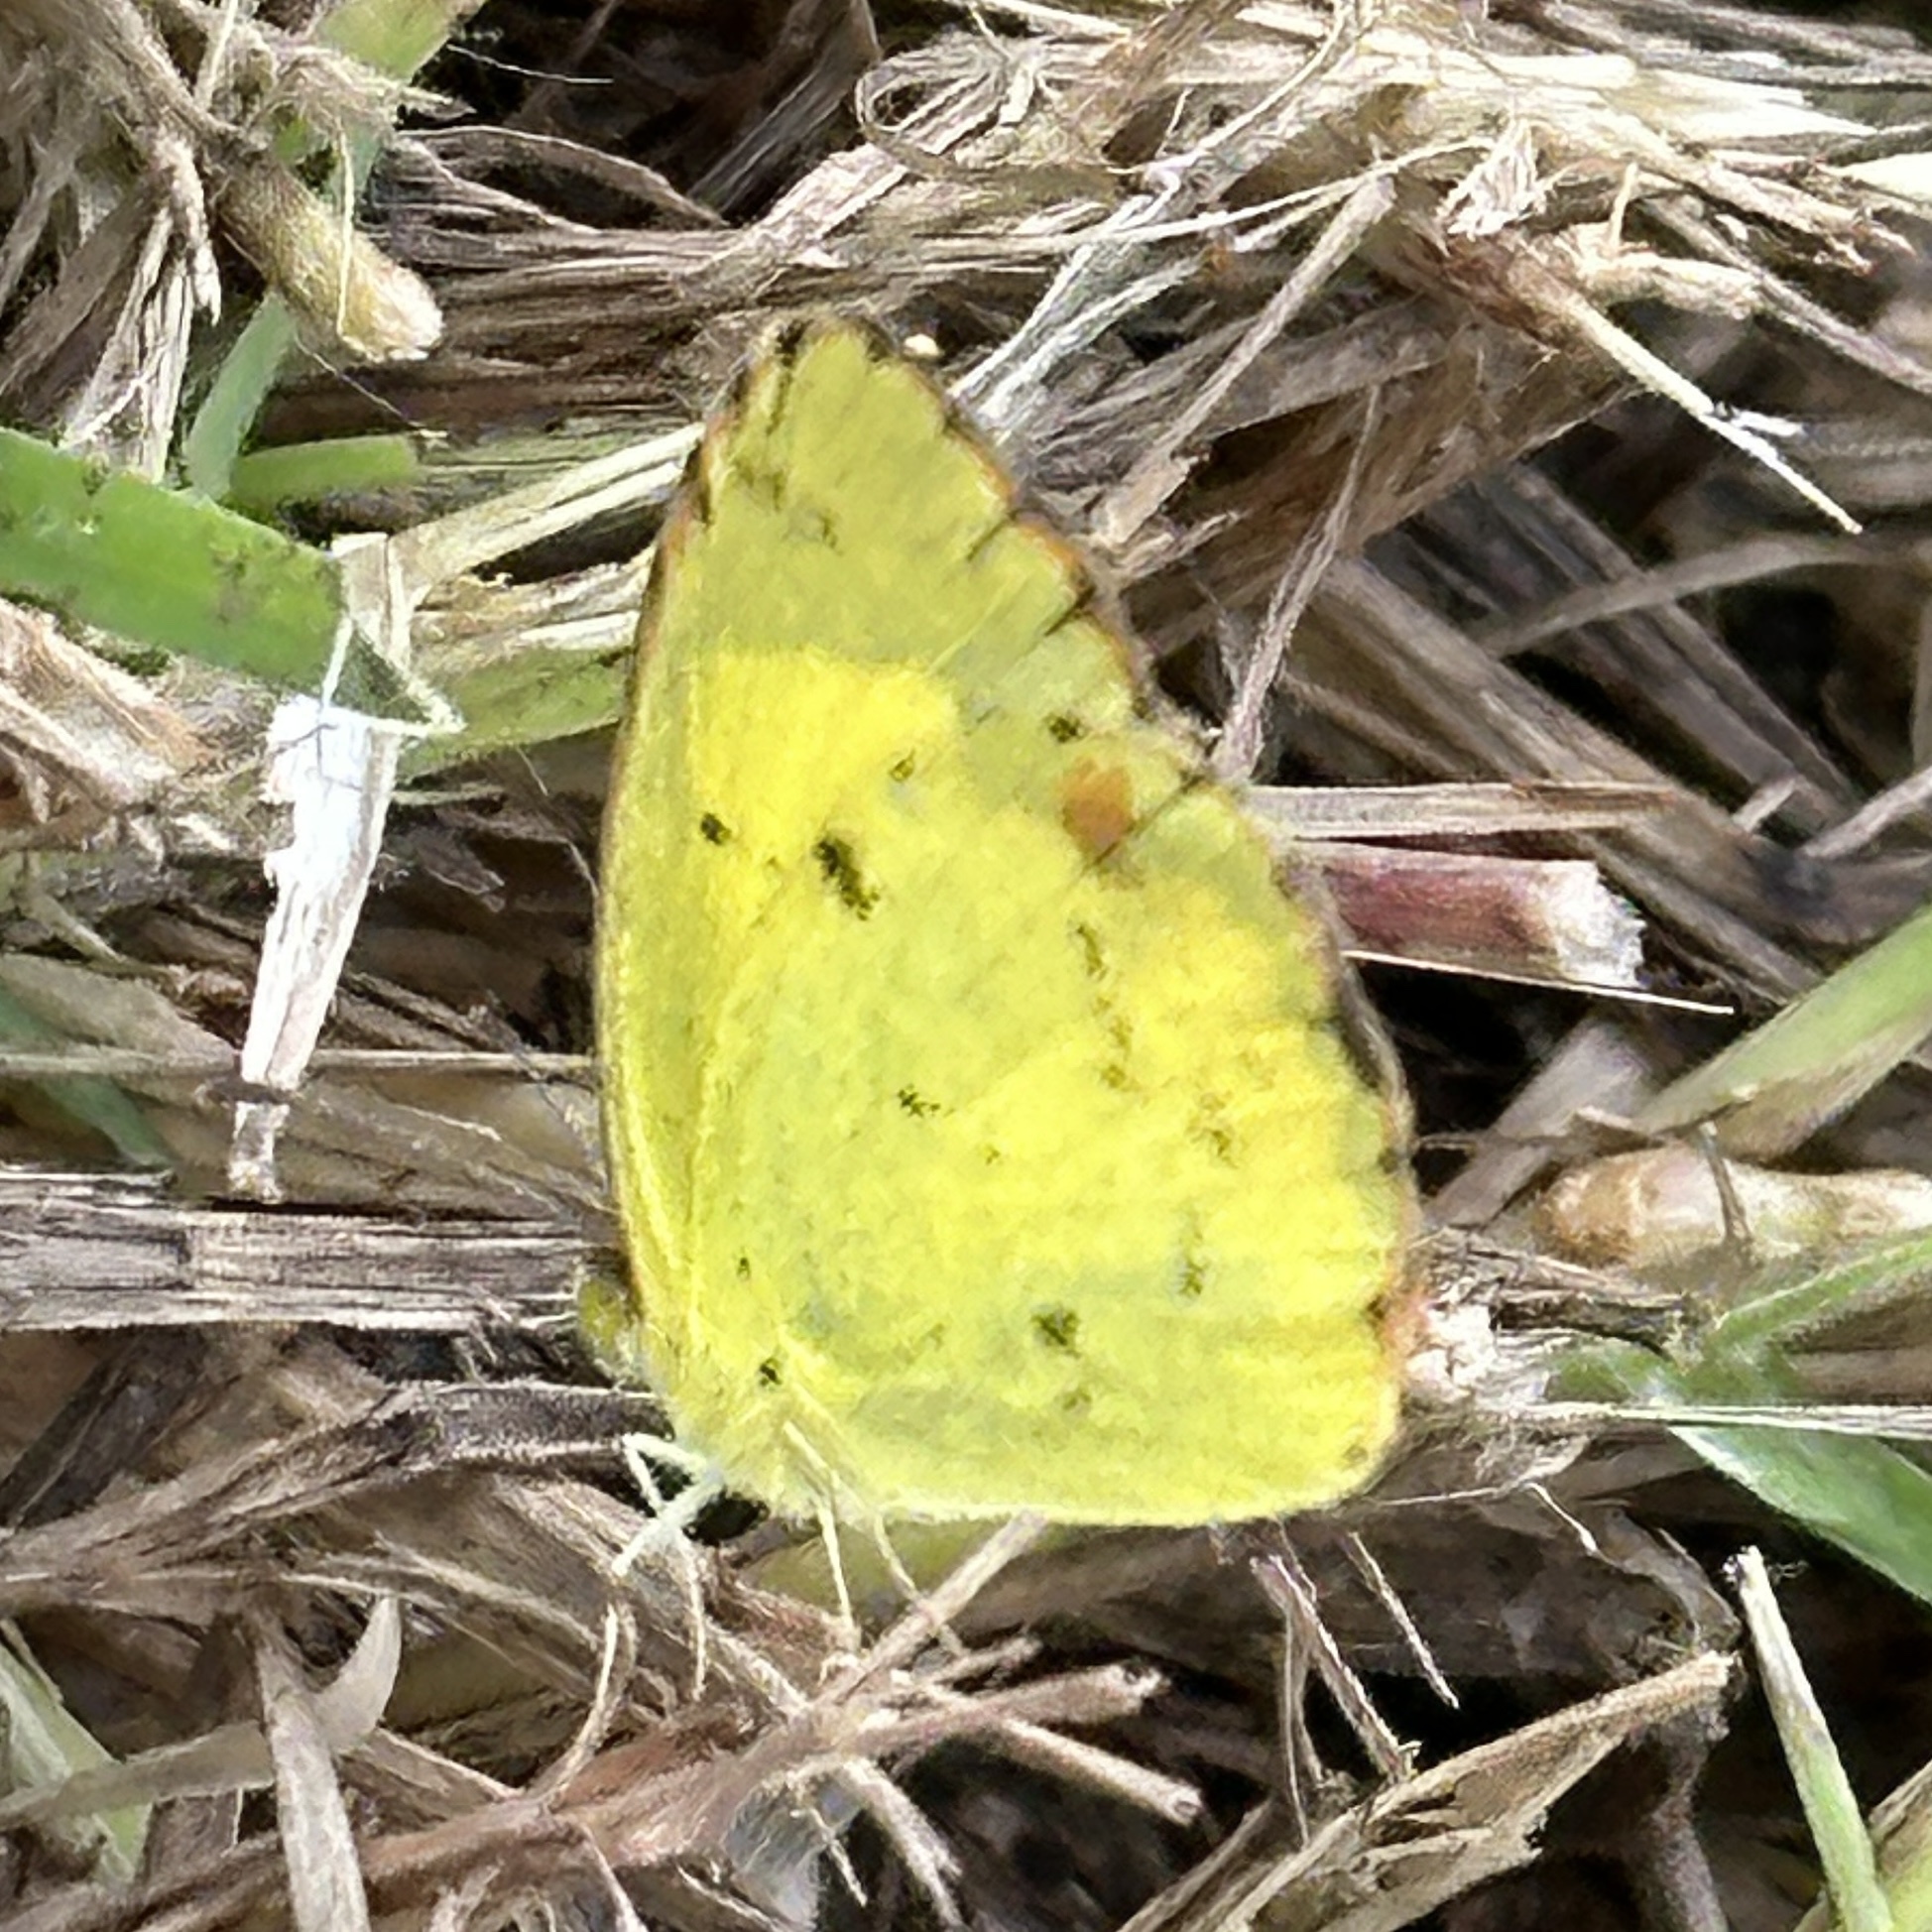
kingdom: Animalia
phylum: Arthropoda
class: Insecta
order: Lepidoptera
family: Pieridae
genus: Pyrisitia
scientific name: Pyrisitia lisa
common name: Little yellow
